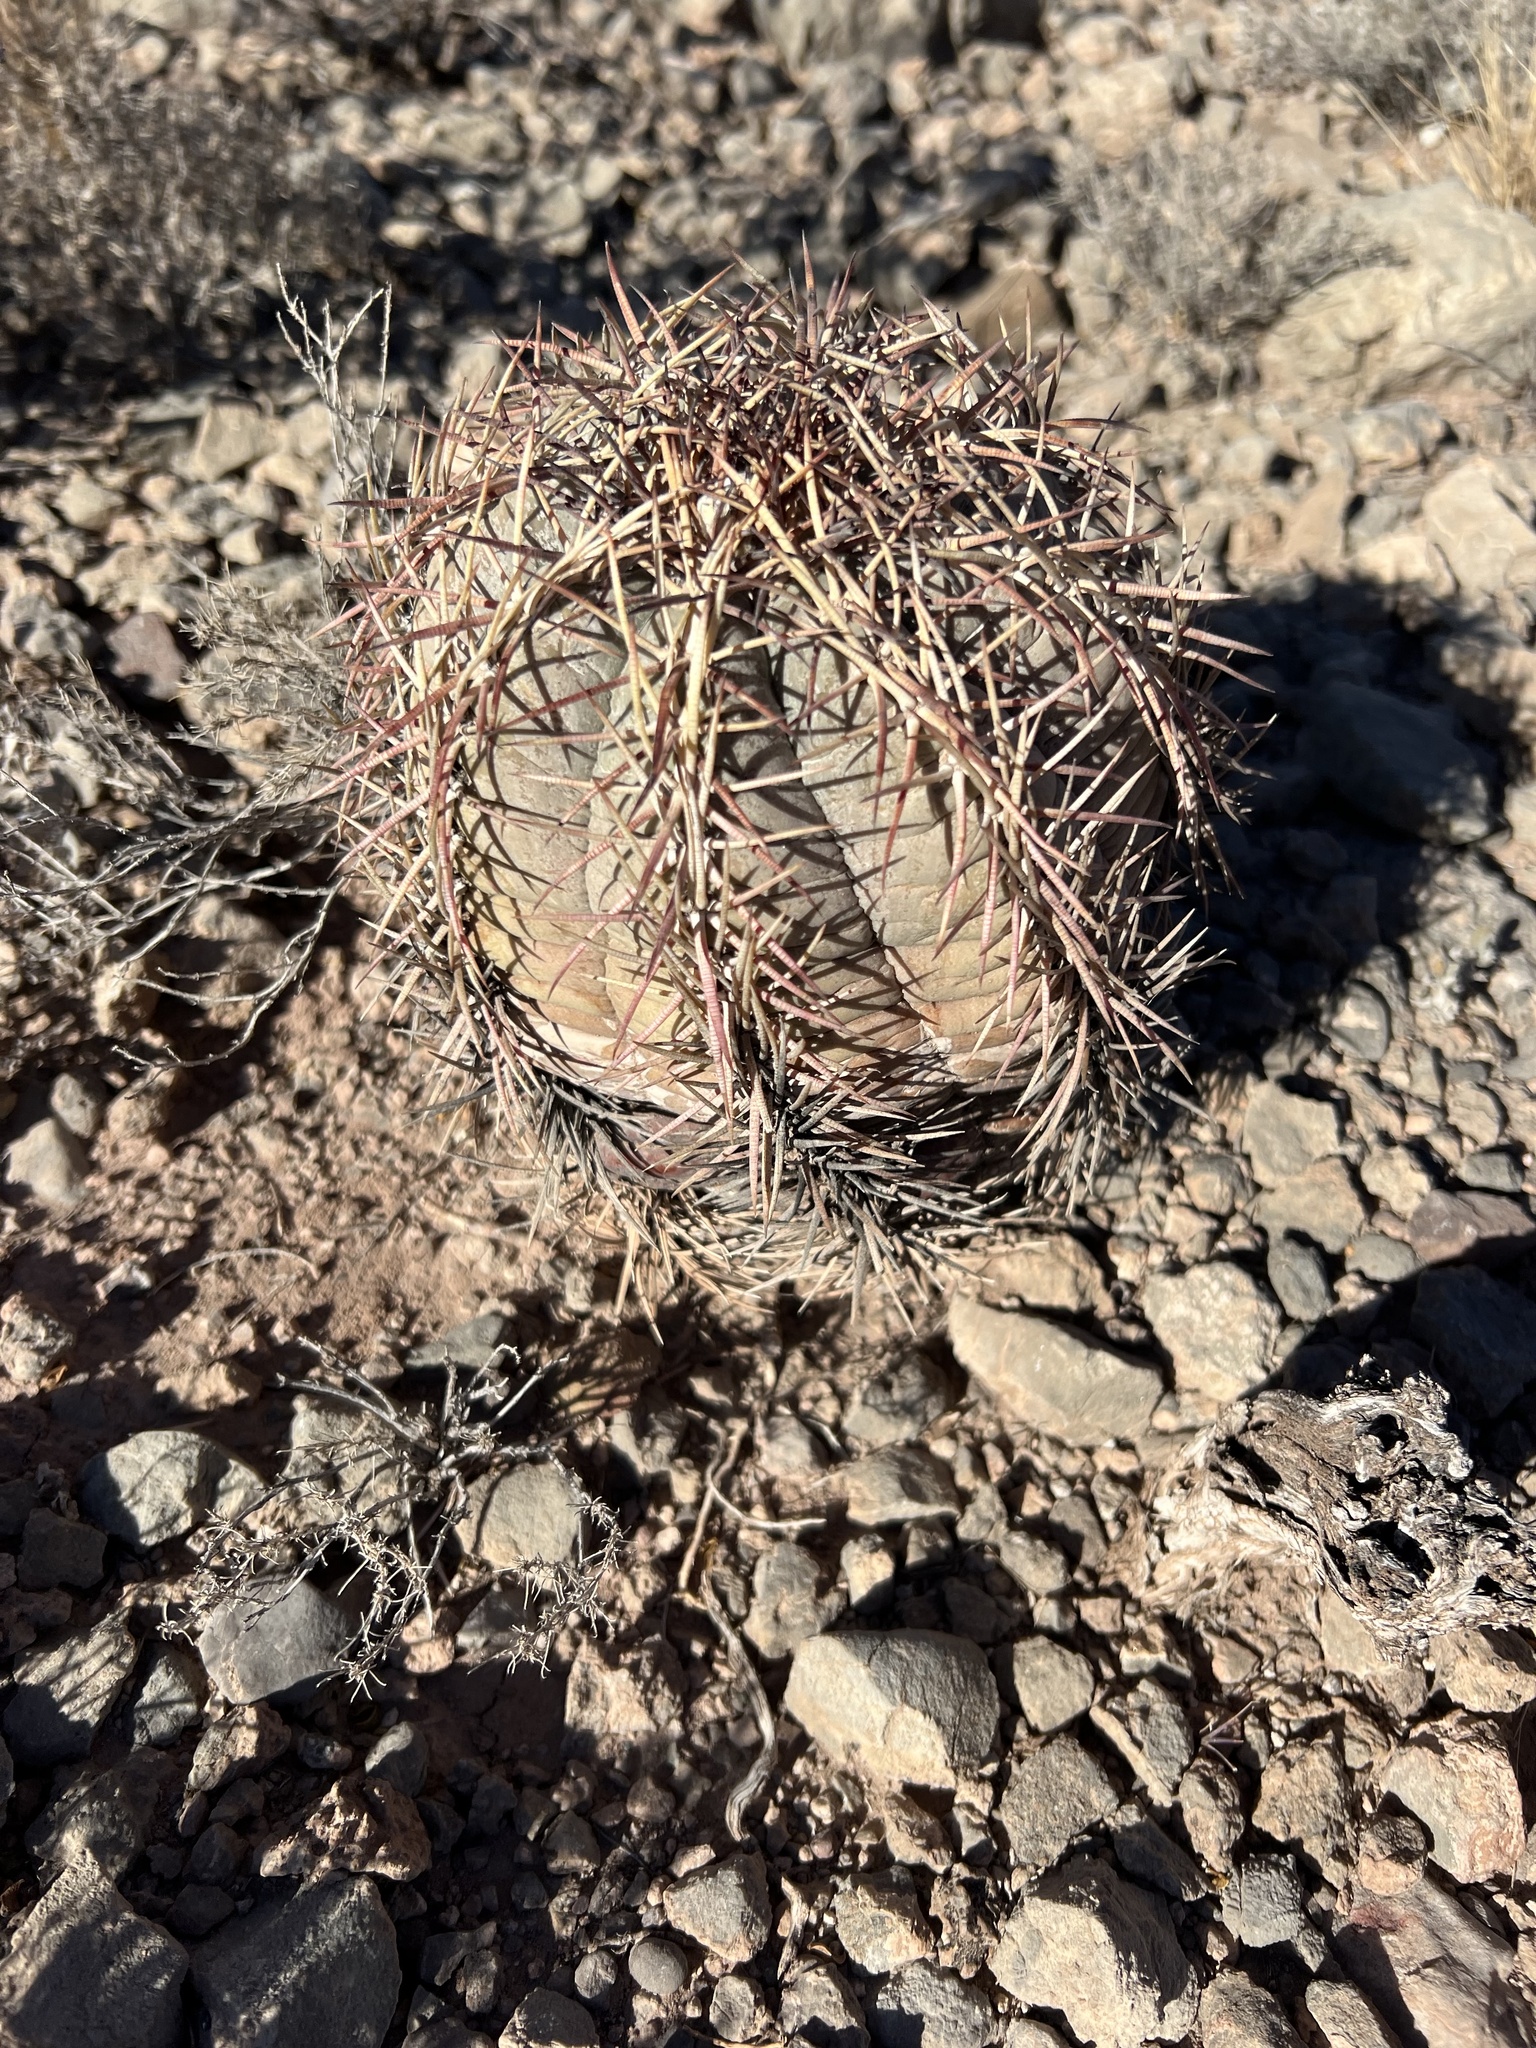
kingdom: Plantae
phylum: Tracheophyta
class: Magnoliopsida
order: Caryophyllales
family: Cactaceae
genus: Echinocactus
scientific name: Echinocactus horizonthalonius
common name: Devilshead
